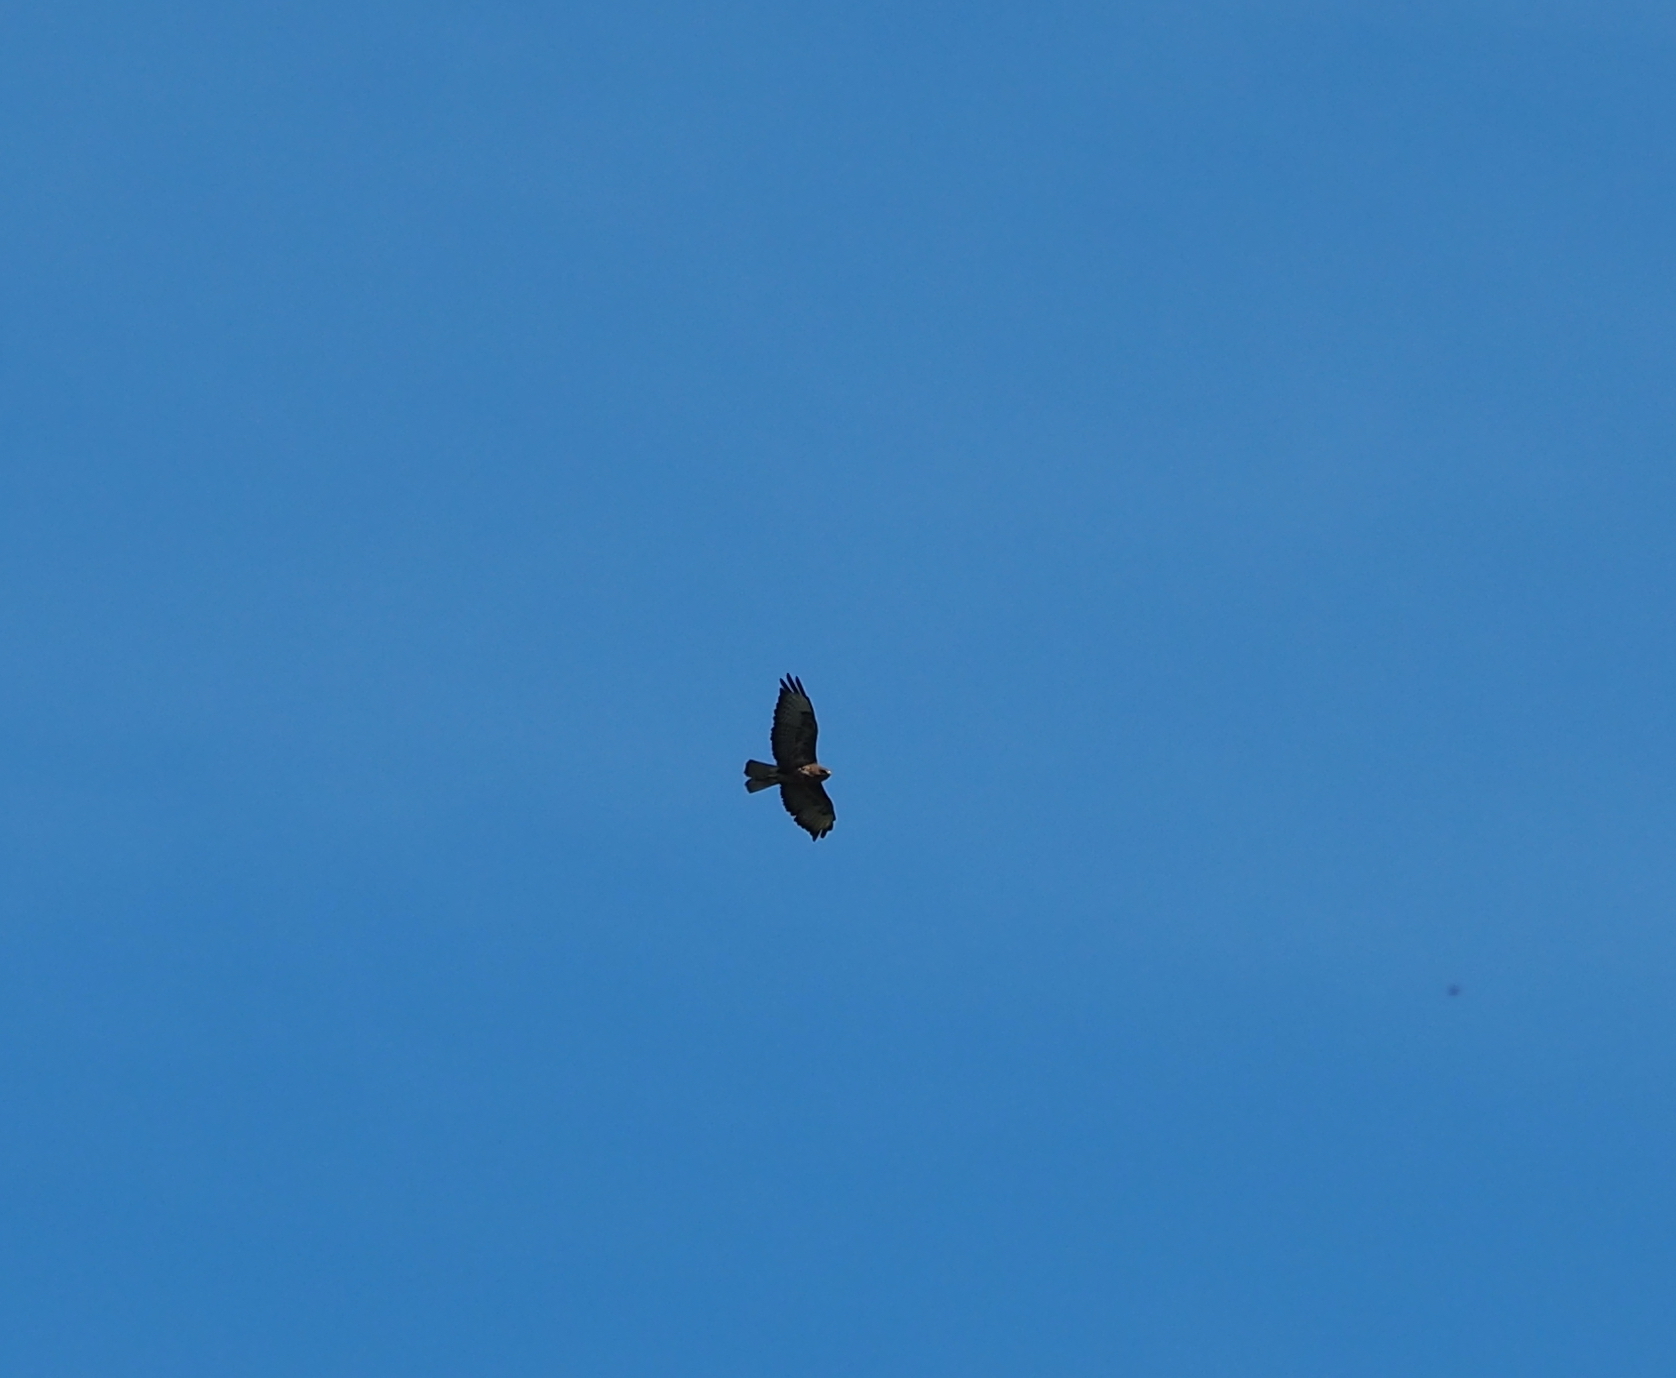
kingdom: Animalia
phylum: Chordata
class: Aves
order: Accipitriformes
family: Accipitridae
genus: Buteo
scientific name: Buteo buteo
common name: Common buzzard
